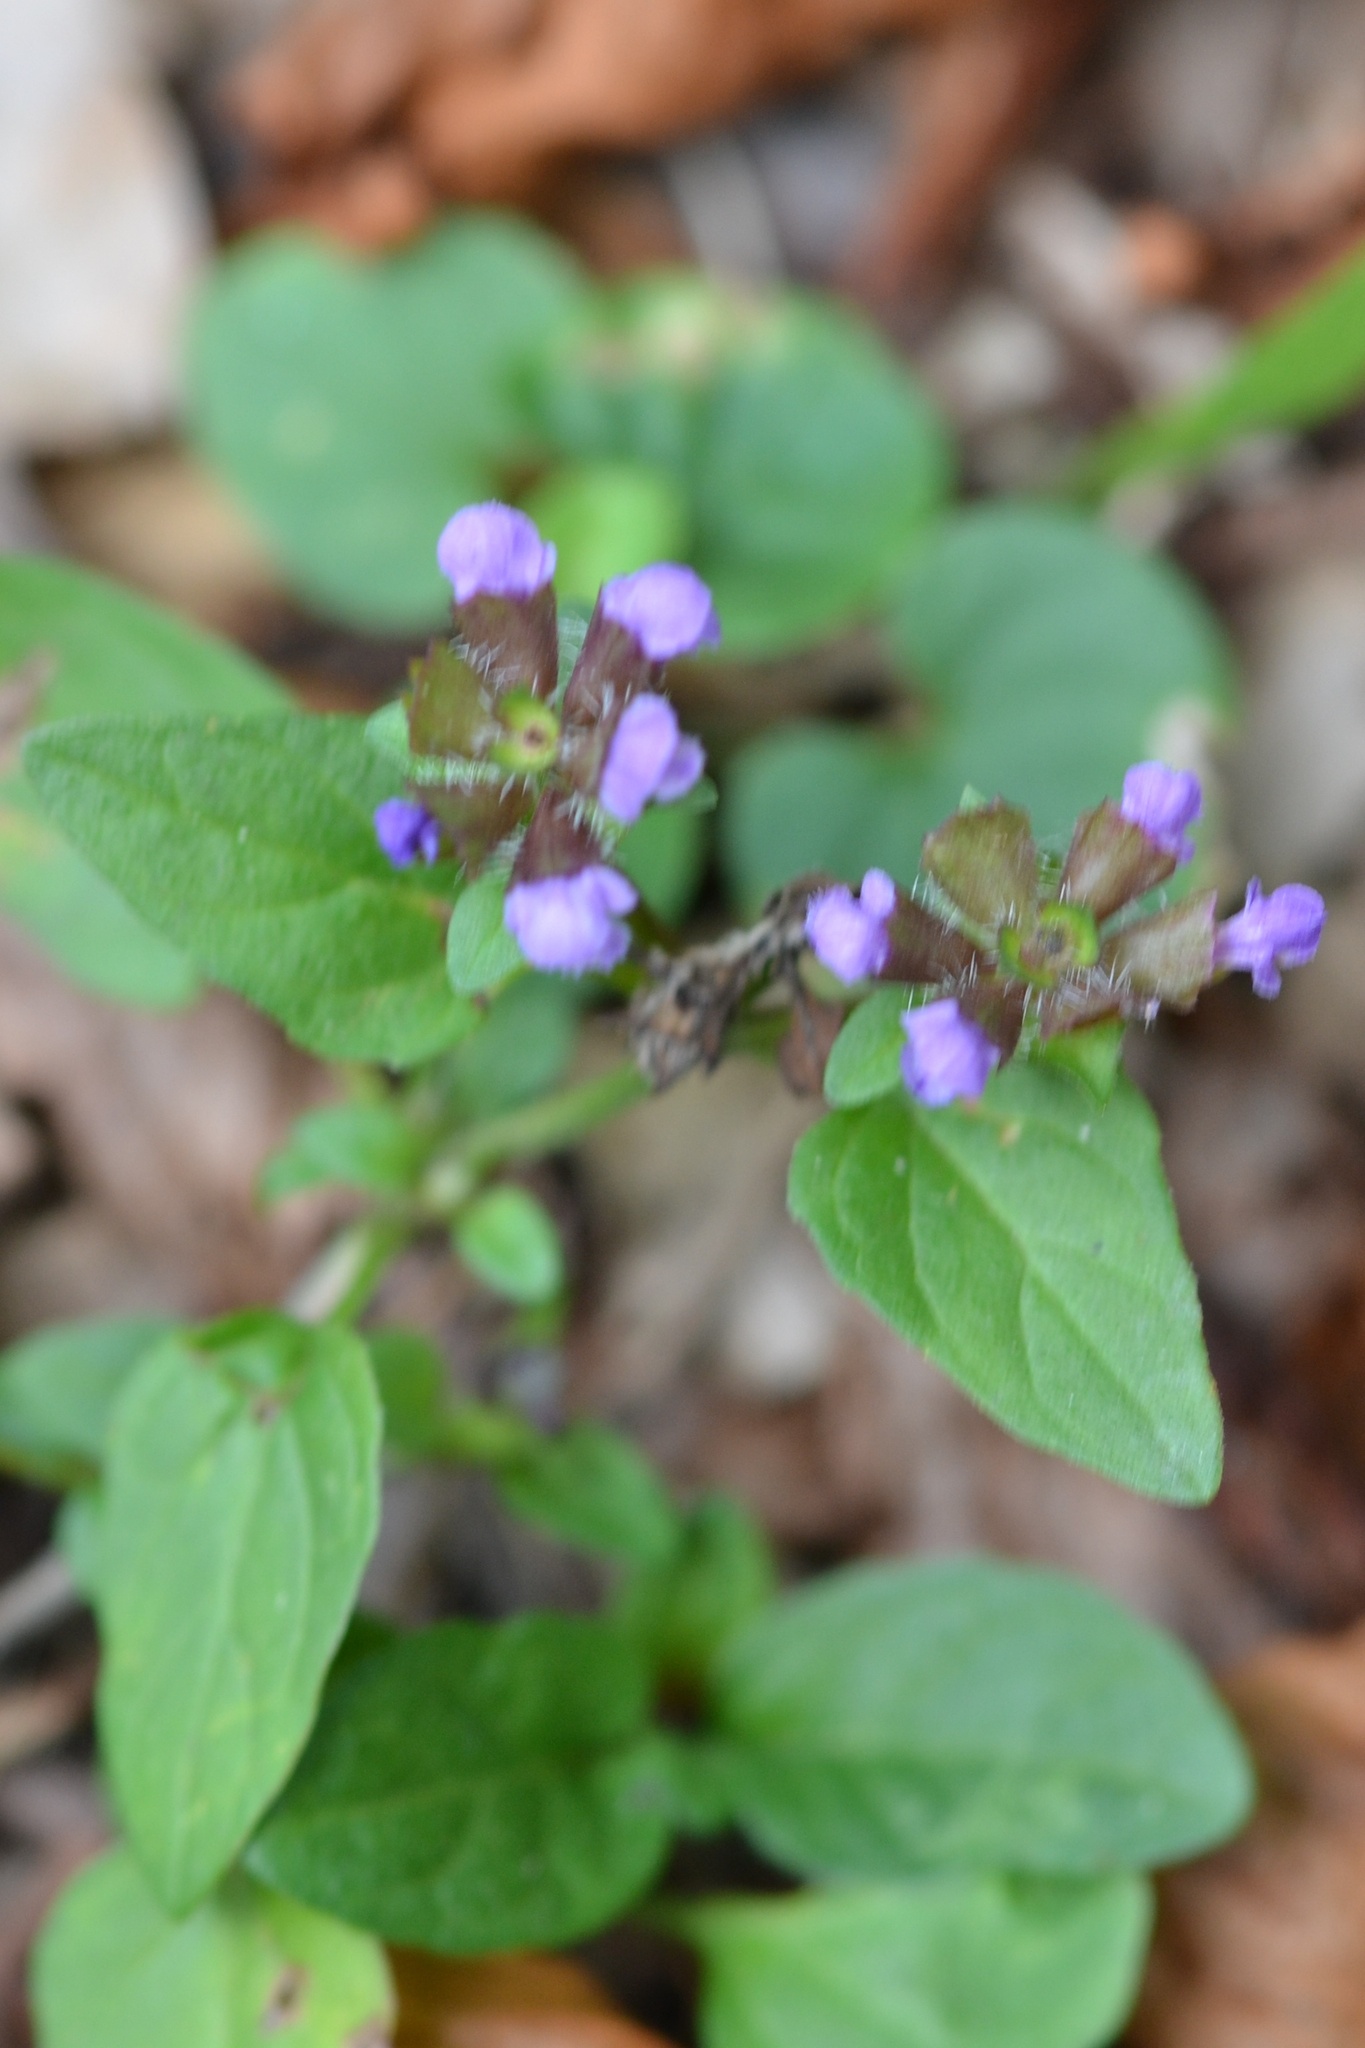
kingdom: Plantae
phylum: Tracheophyta
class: Magnoliopsida
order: Lamiales
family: Lamiaceae
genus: Prunella
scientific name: Prunella vulgaris
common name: Heal-all
